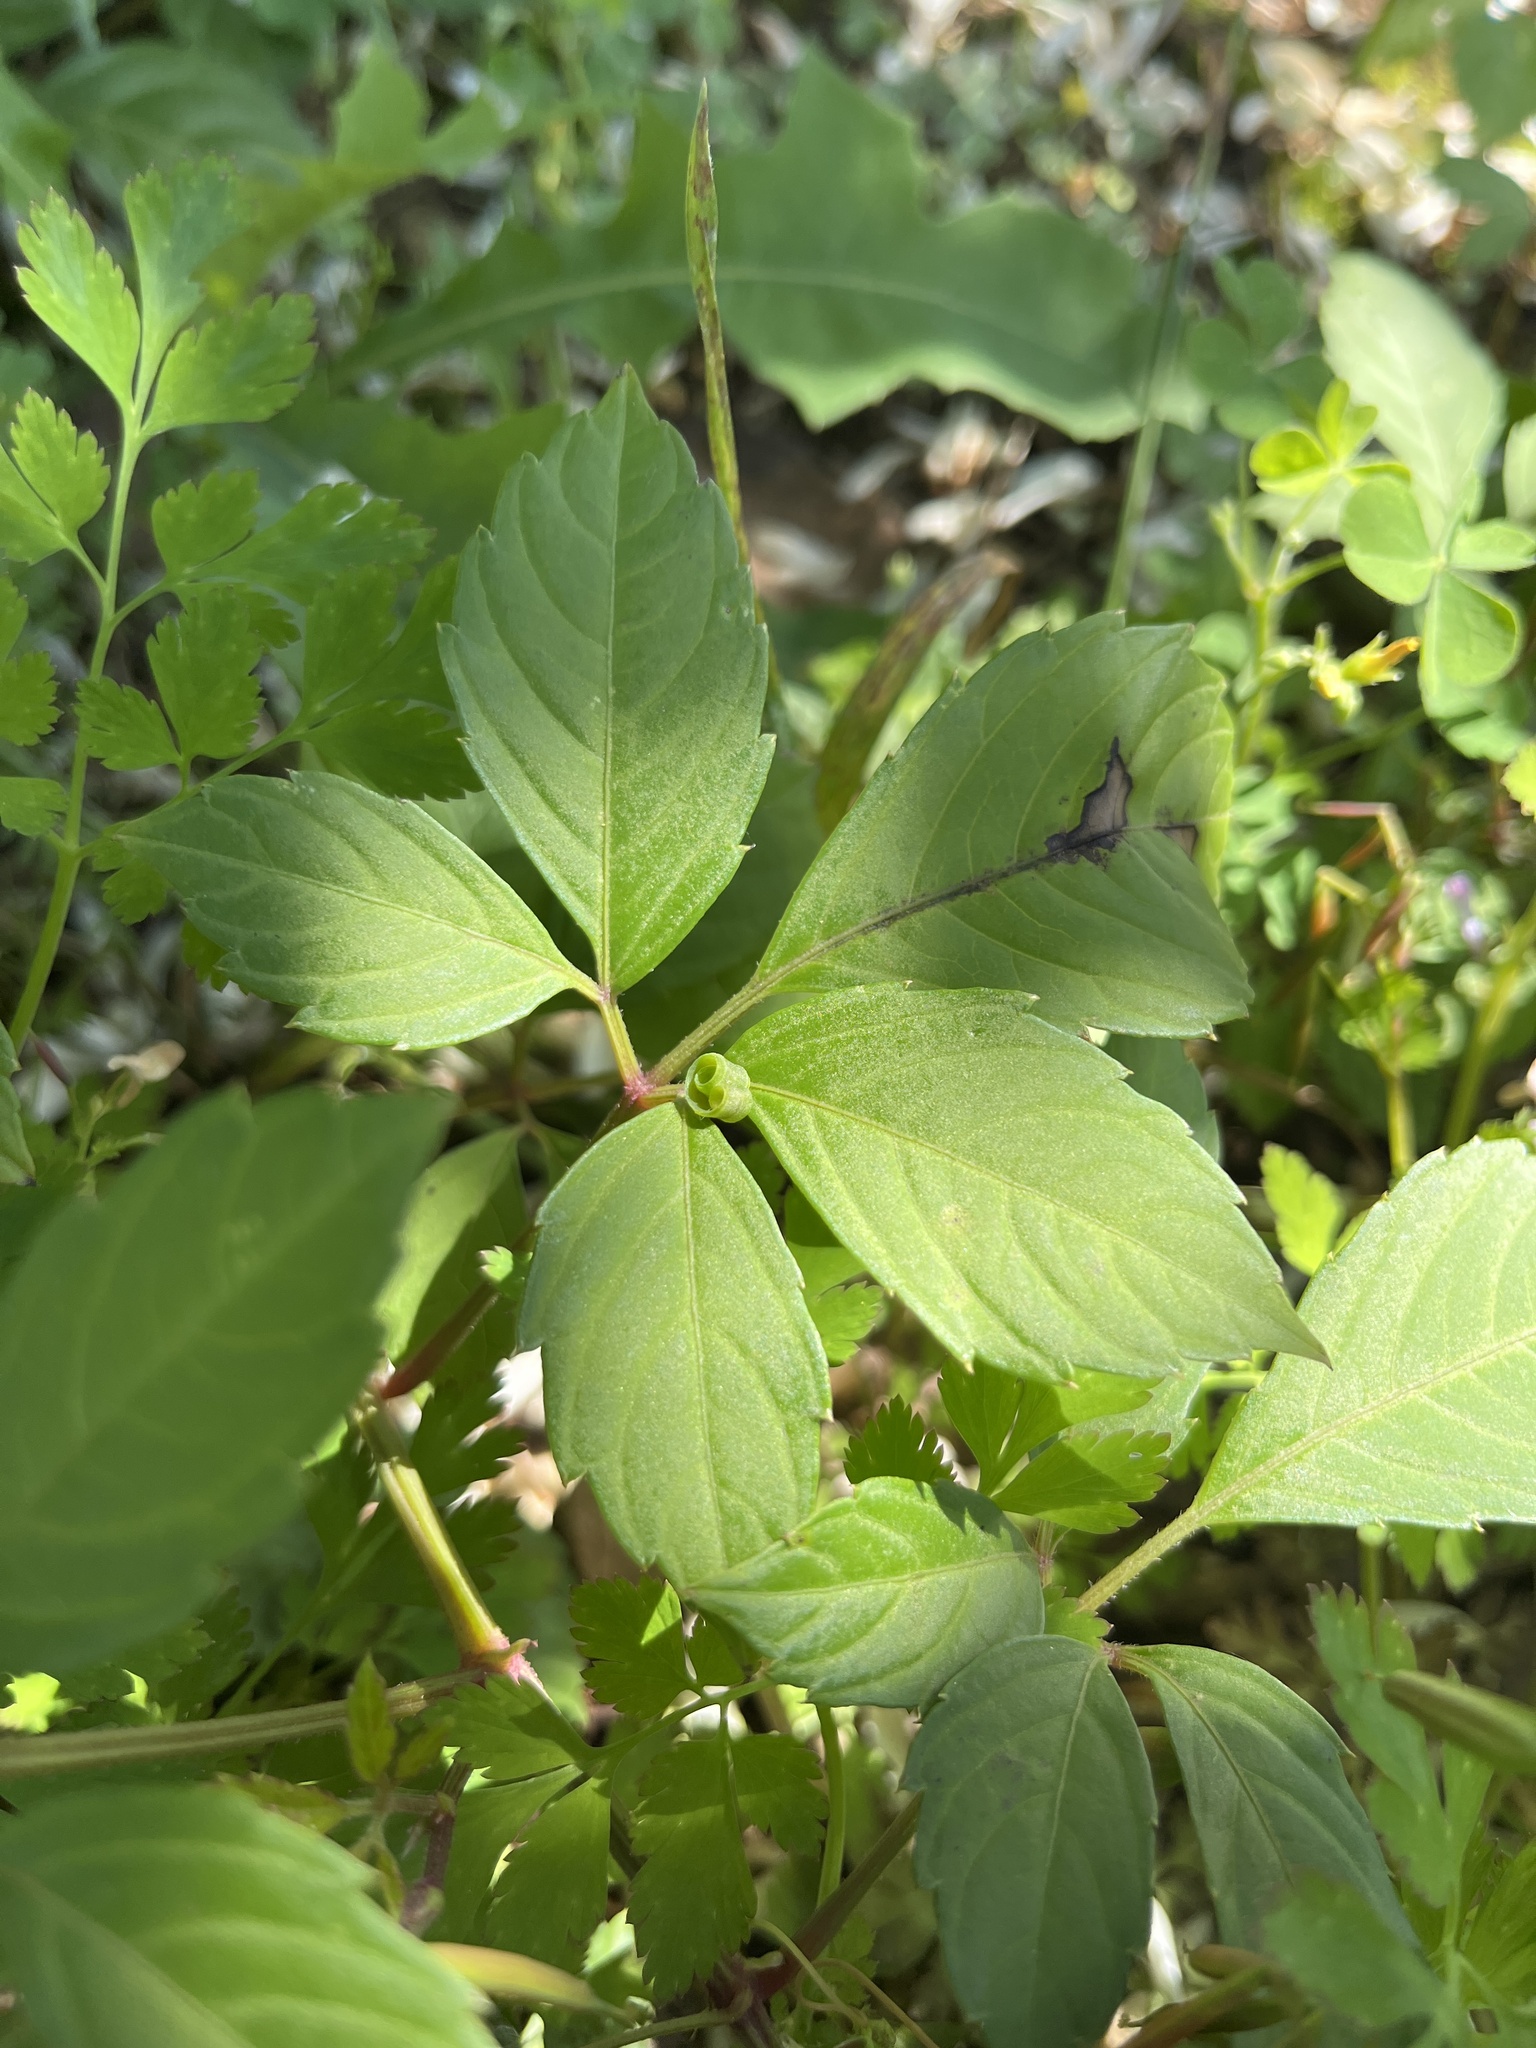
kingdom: Plantae
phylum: Tracheophyta
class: Magnoliopsida
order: Ranunculales
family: Papaveraceae
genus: Corydalis
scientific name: Corydalis incisa
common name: Incised fumewort
